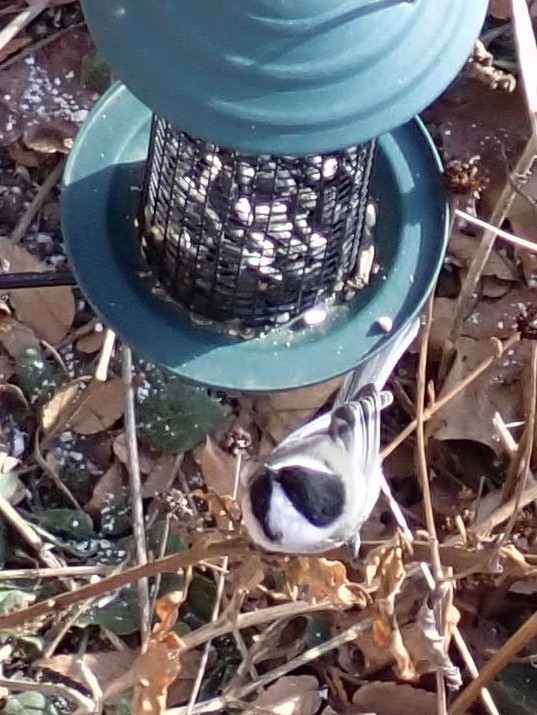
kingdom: Animalia
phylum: Chordata
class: Aves
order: Passeriformes
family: Paridae
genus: Poecile
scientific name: Poecile atricapillus
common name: Black-capped chickadee
